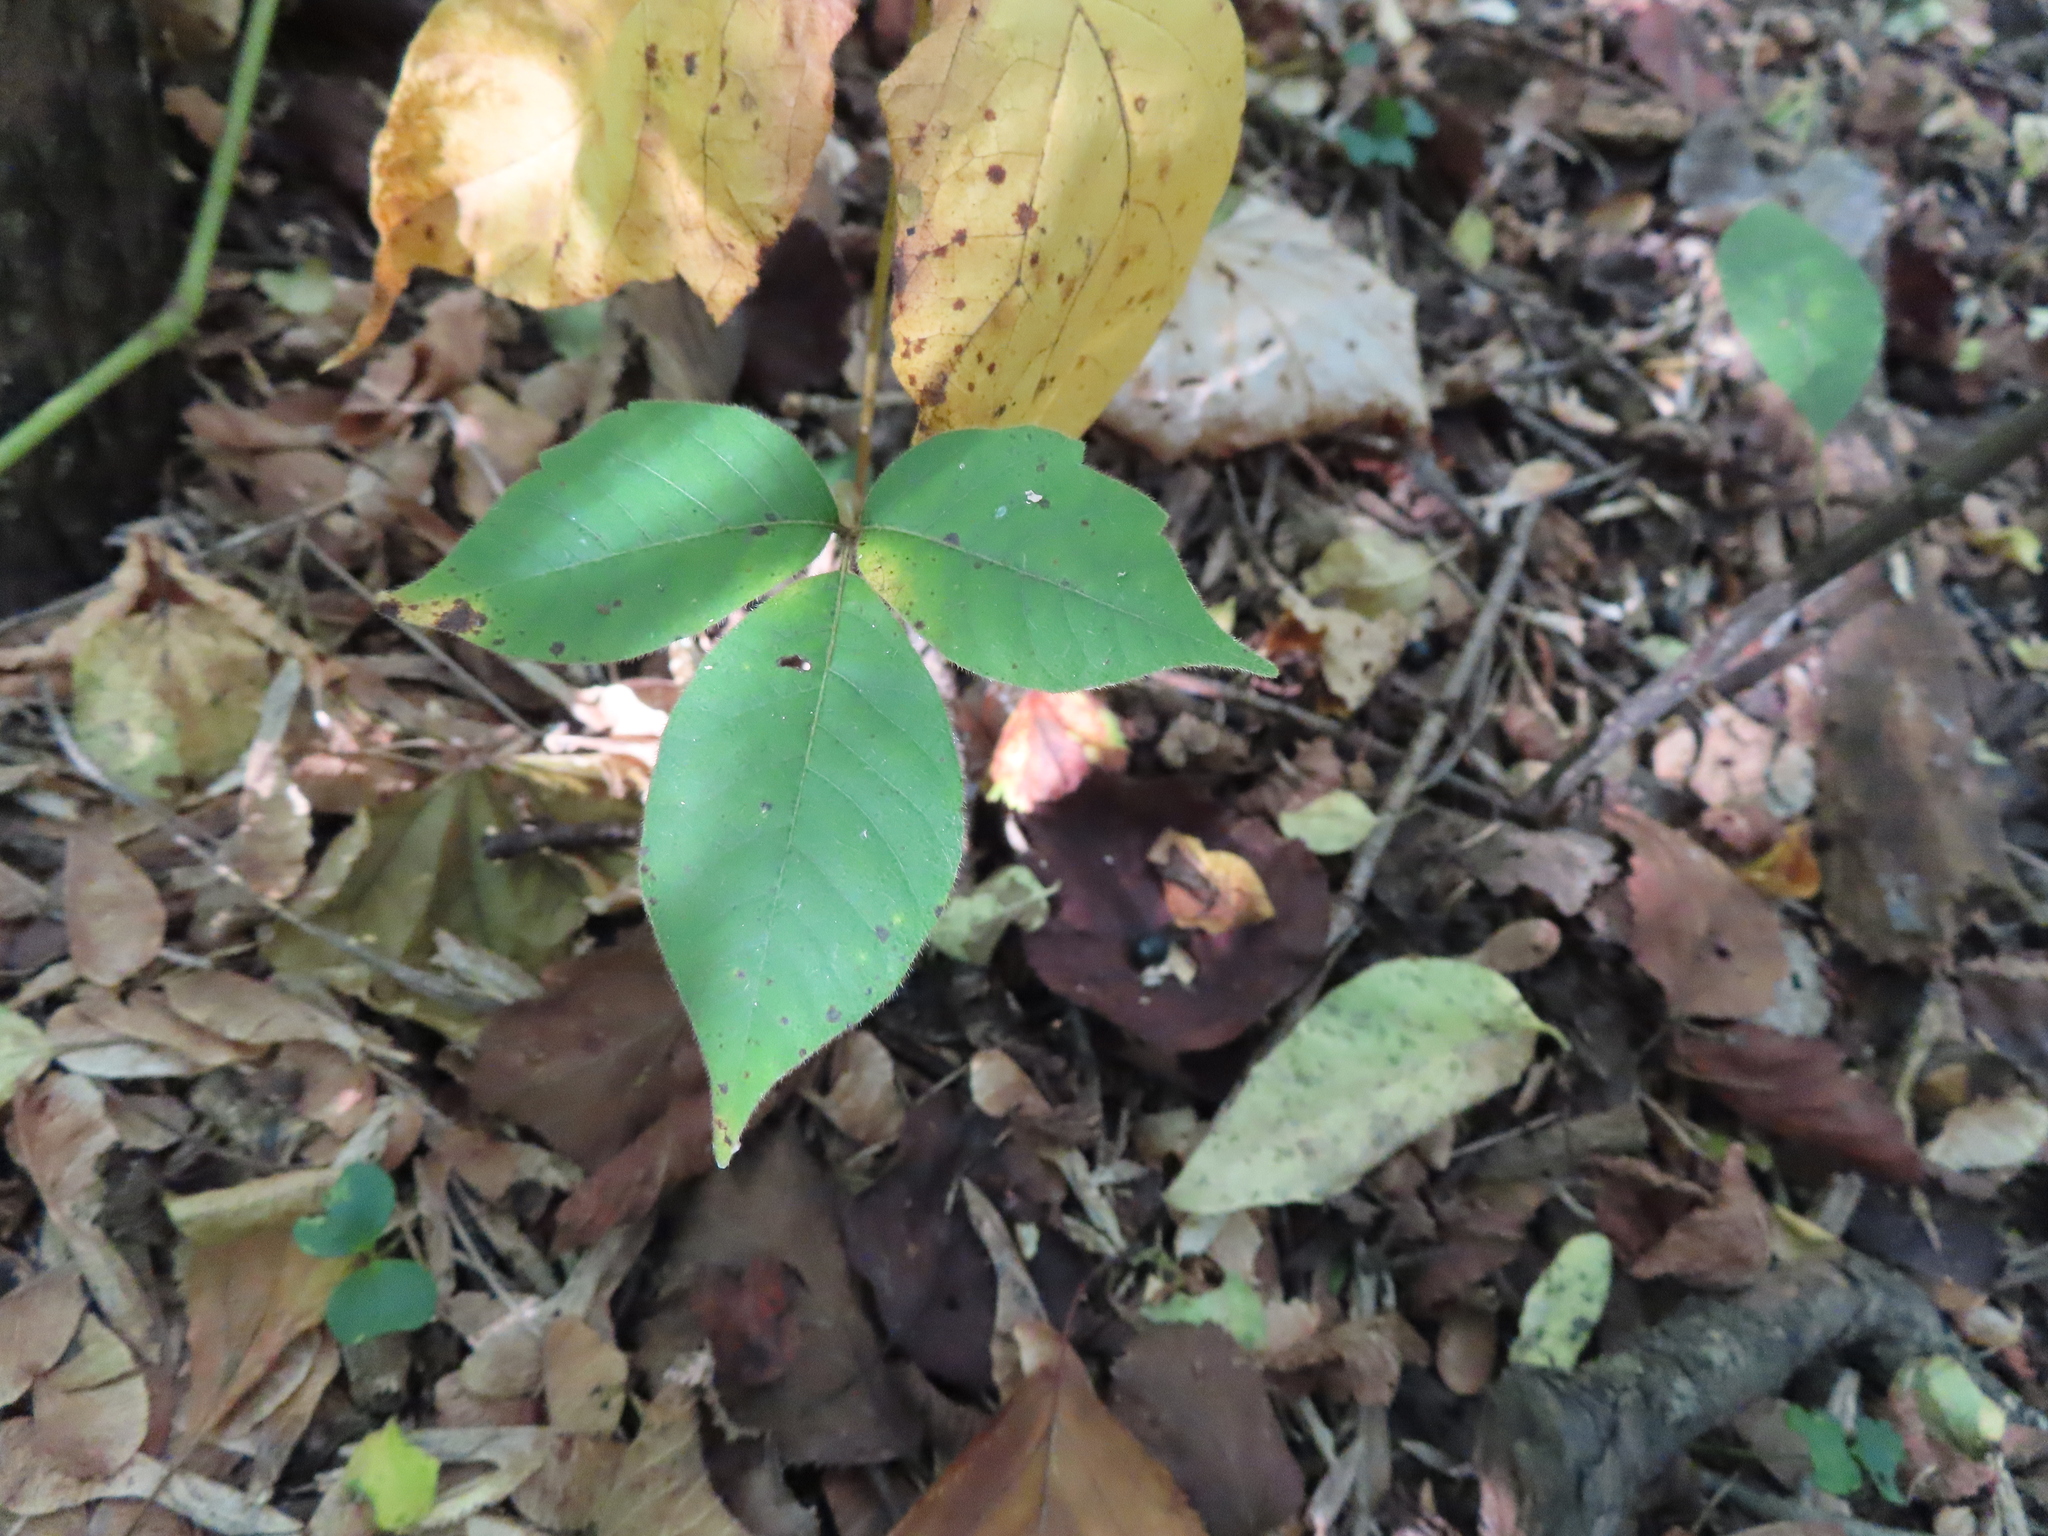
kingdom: Plantae
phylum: Tracheophyta
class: Magnoliopsida
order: Sapindales
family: Anacardiaceae
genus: Toxicodendron
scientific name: Toxicodendron radicans
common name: Poison ivy
